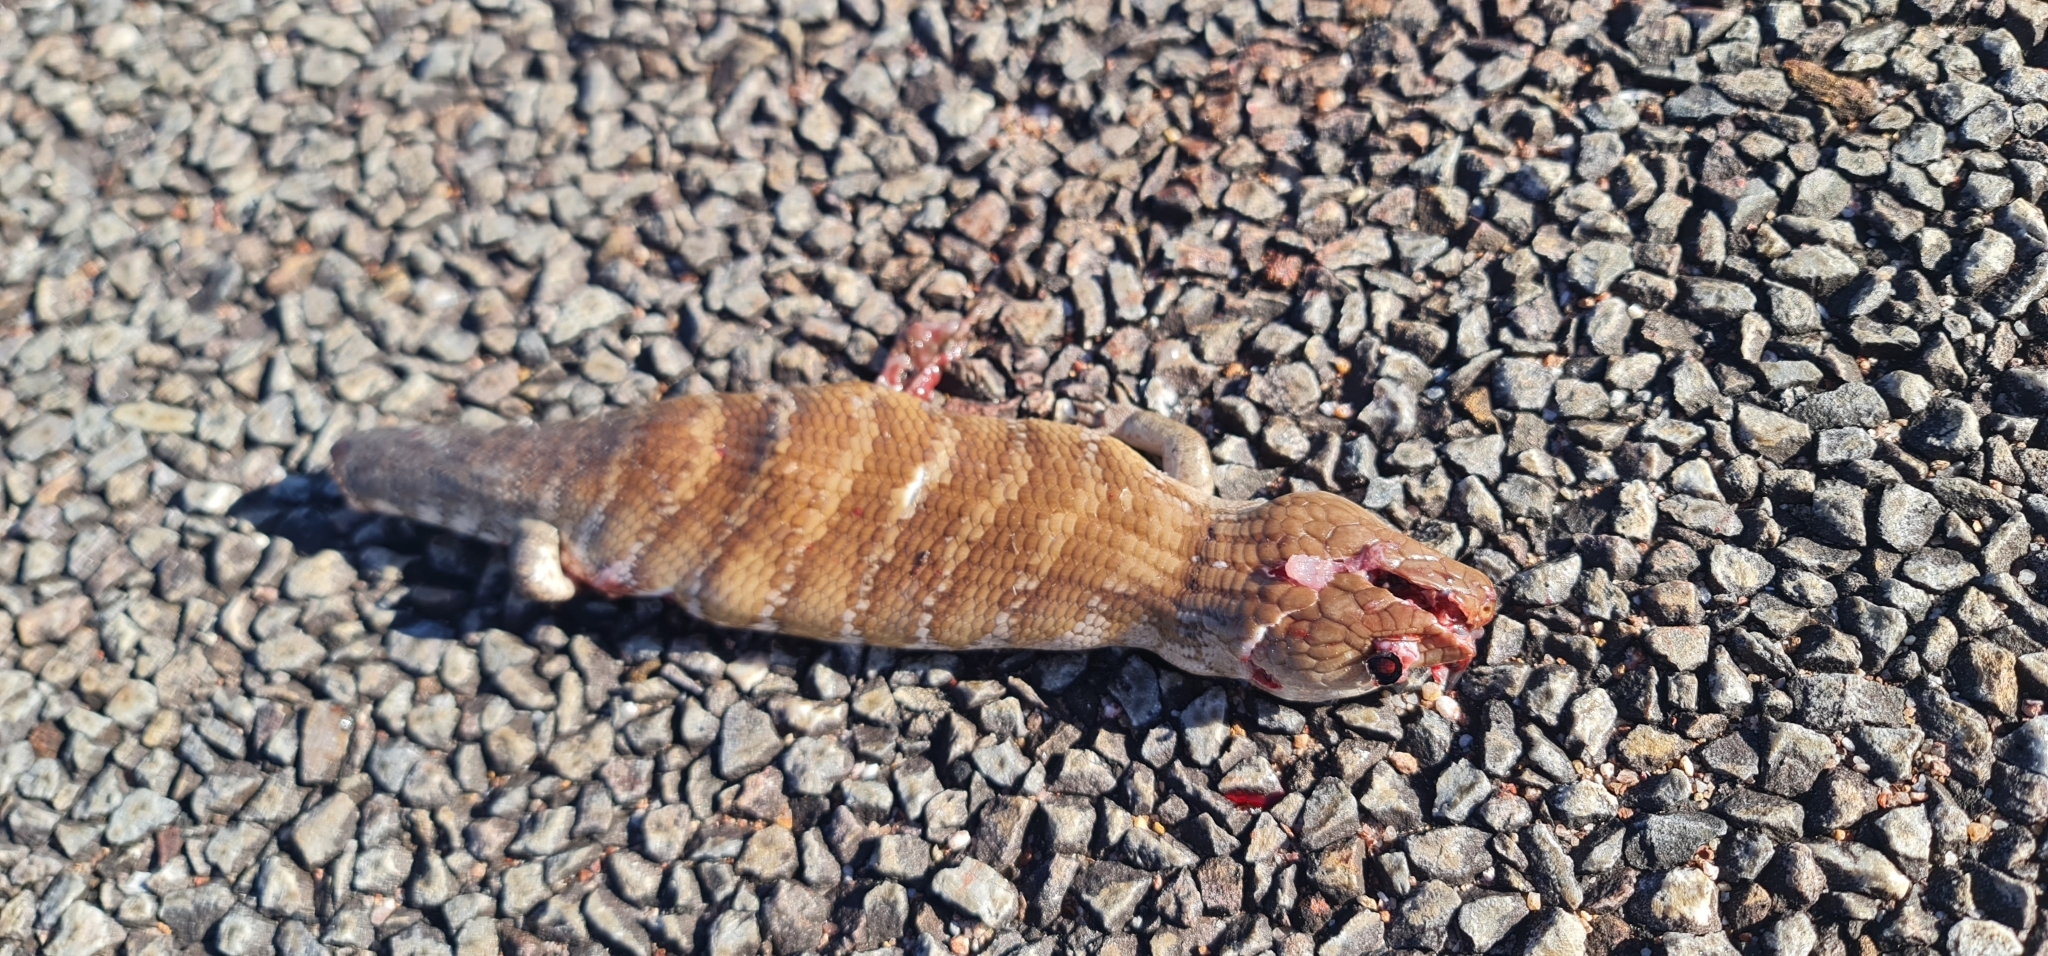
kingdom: Animalia
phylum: Chordata
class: Squamata
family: Scincidae
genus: Tiliqua
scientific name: Tiliqua scincoides
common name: Common bluetongue
